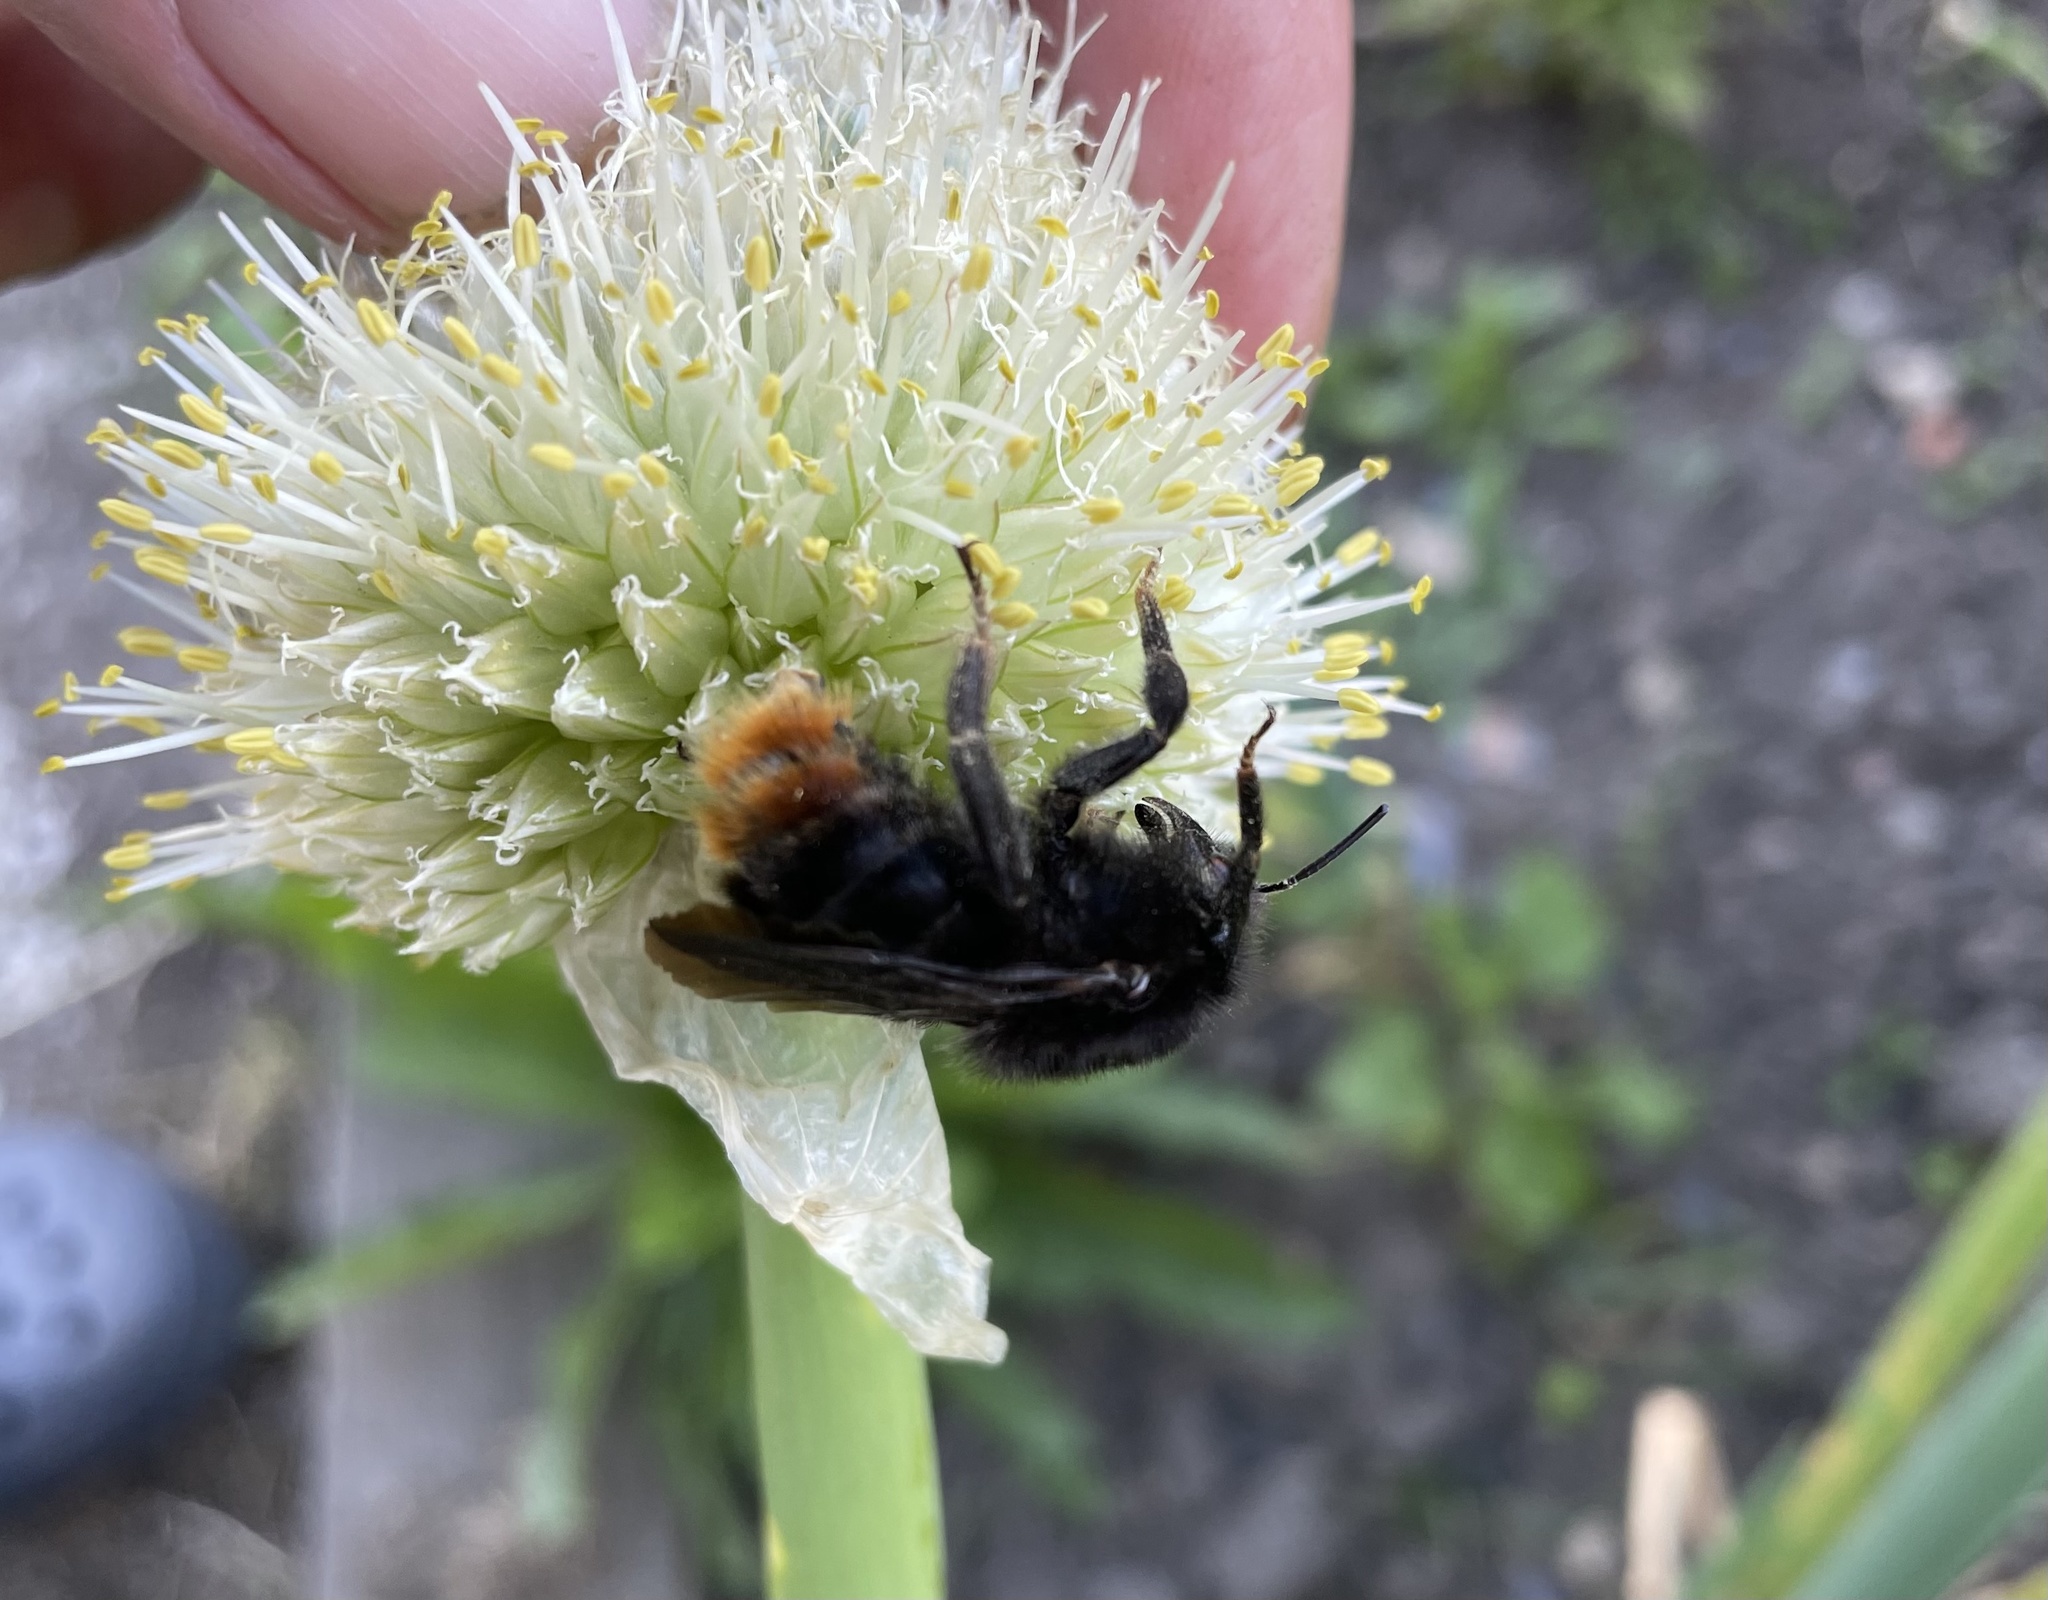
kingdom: Animalia
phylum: Arthropoda
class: Insecta
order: Hymenoptera
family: Apidae
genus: Bombus
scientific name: Bombus rupestris
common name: Hill cuckoo-bee
